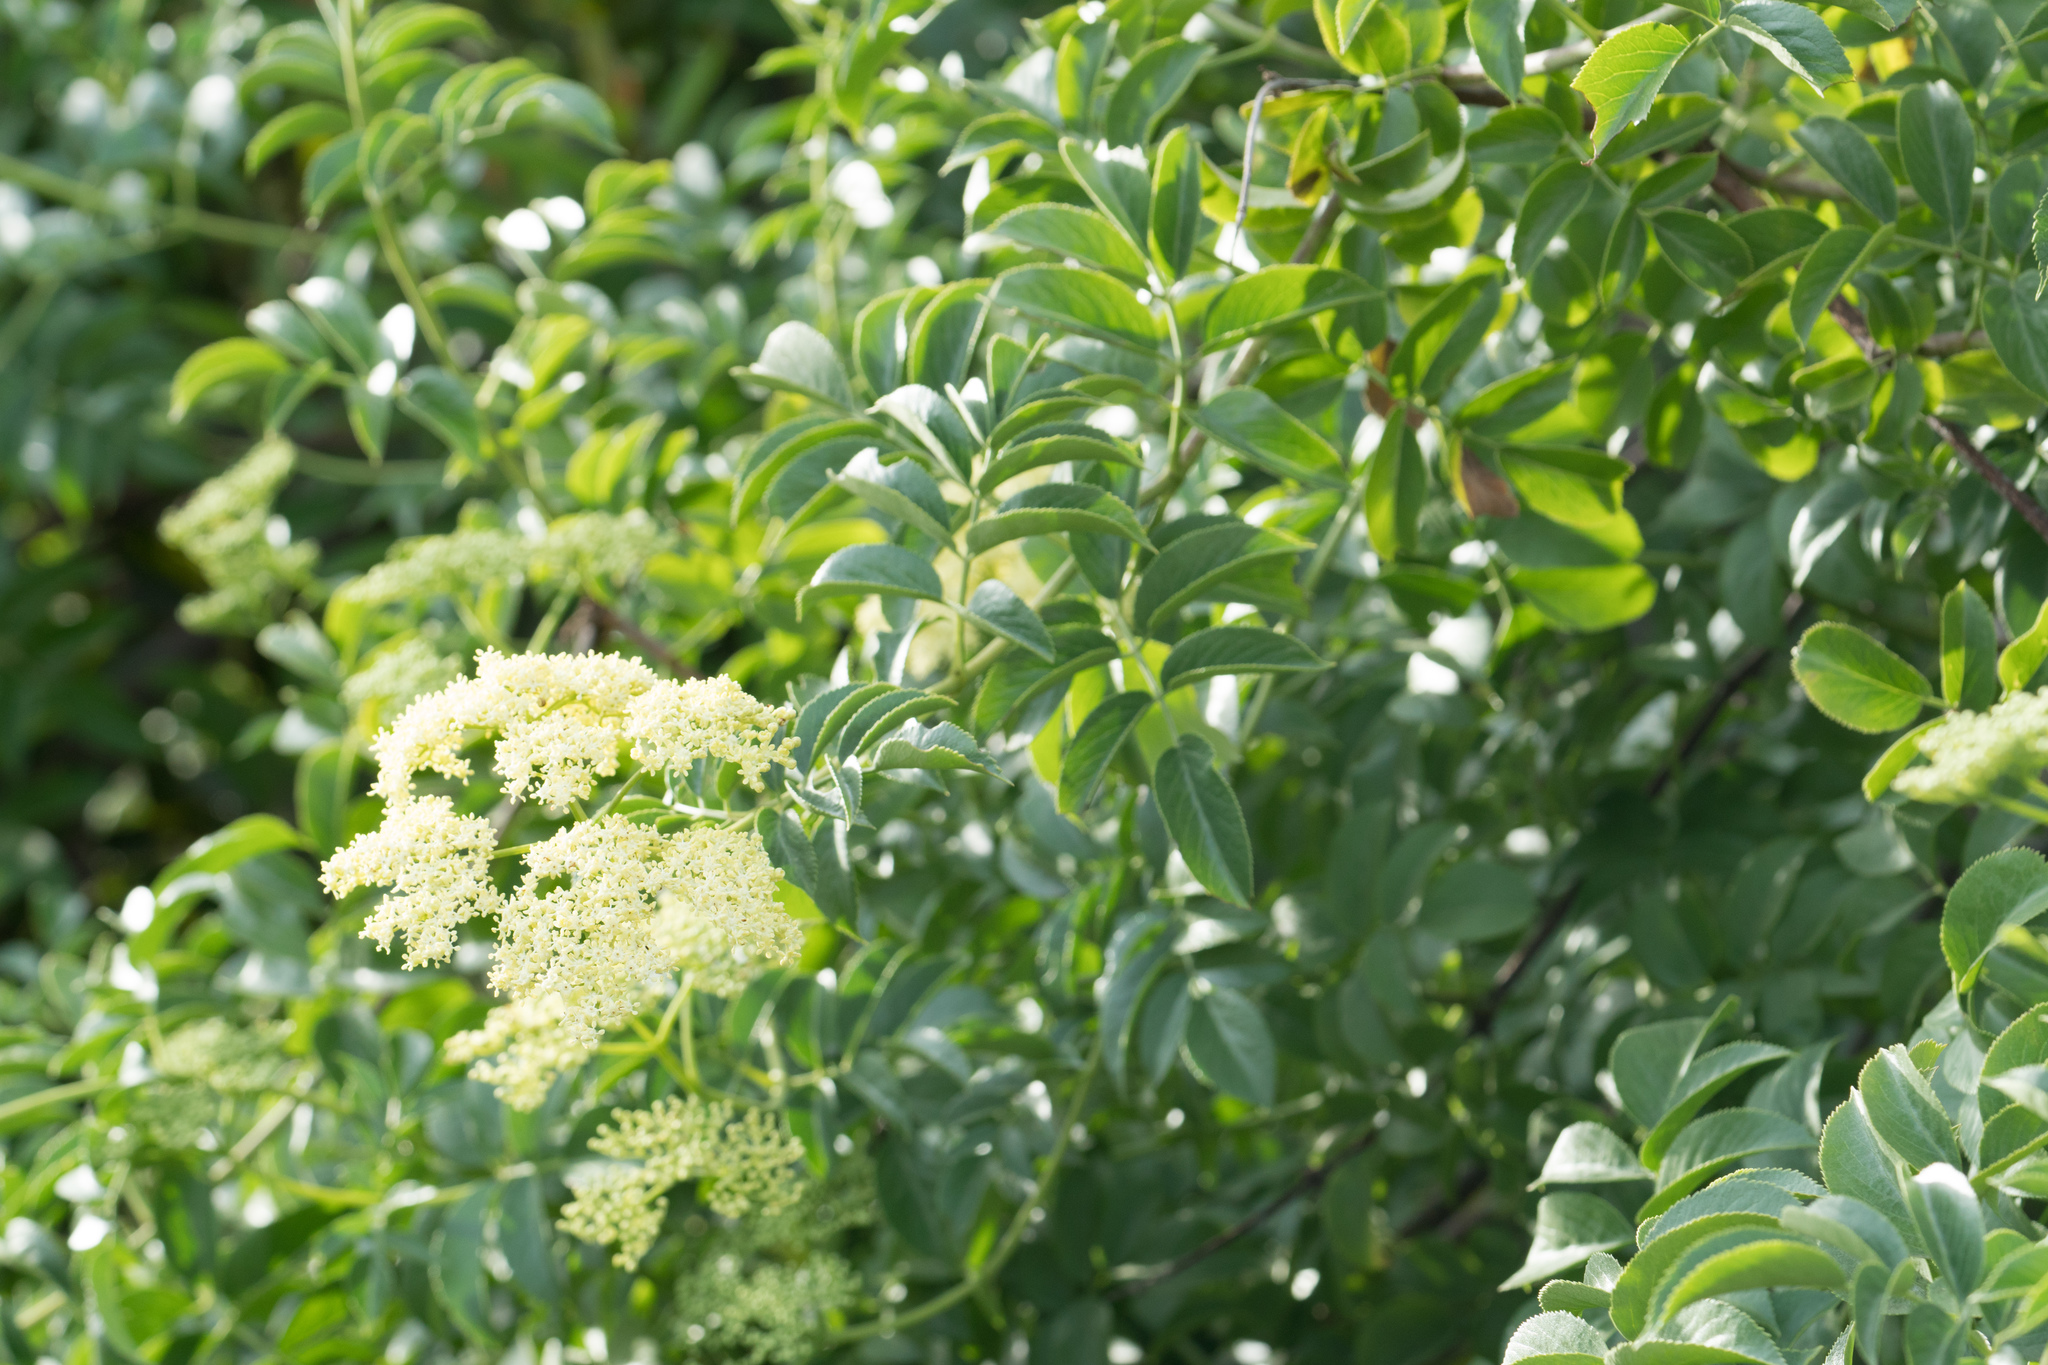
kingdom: Plantae
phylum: Tracheophyta
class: Magnoliopsida
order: Dipsacales
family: Viburnaceae
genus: Sambucus
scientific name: Sambucus cerulea
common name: Blue elder
